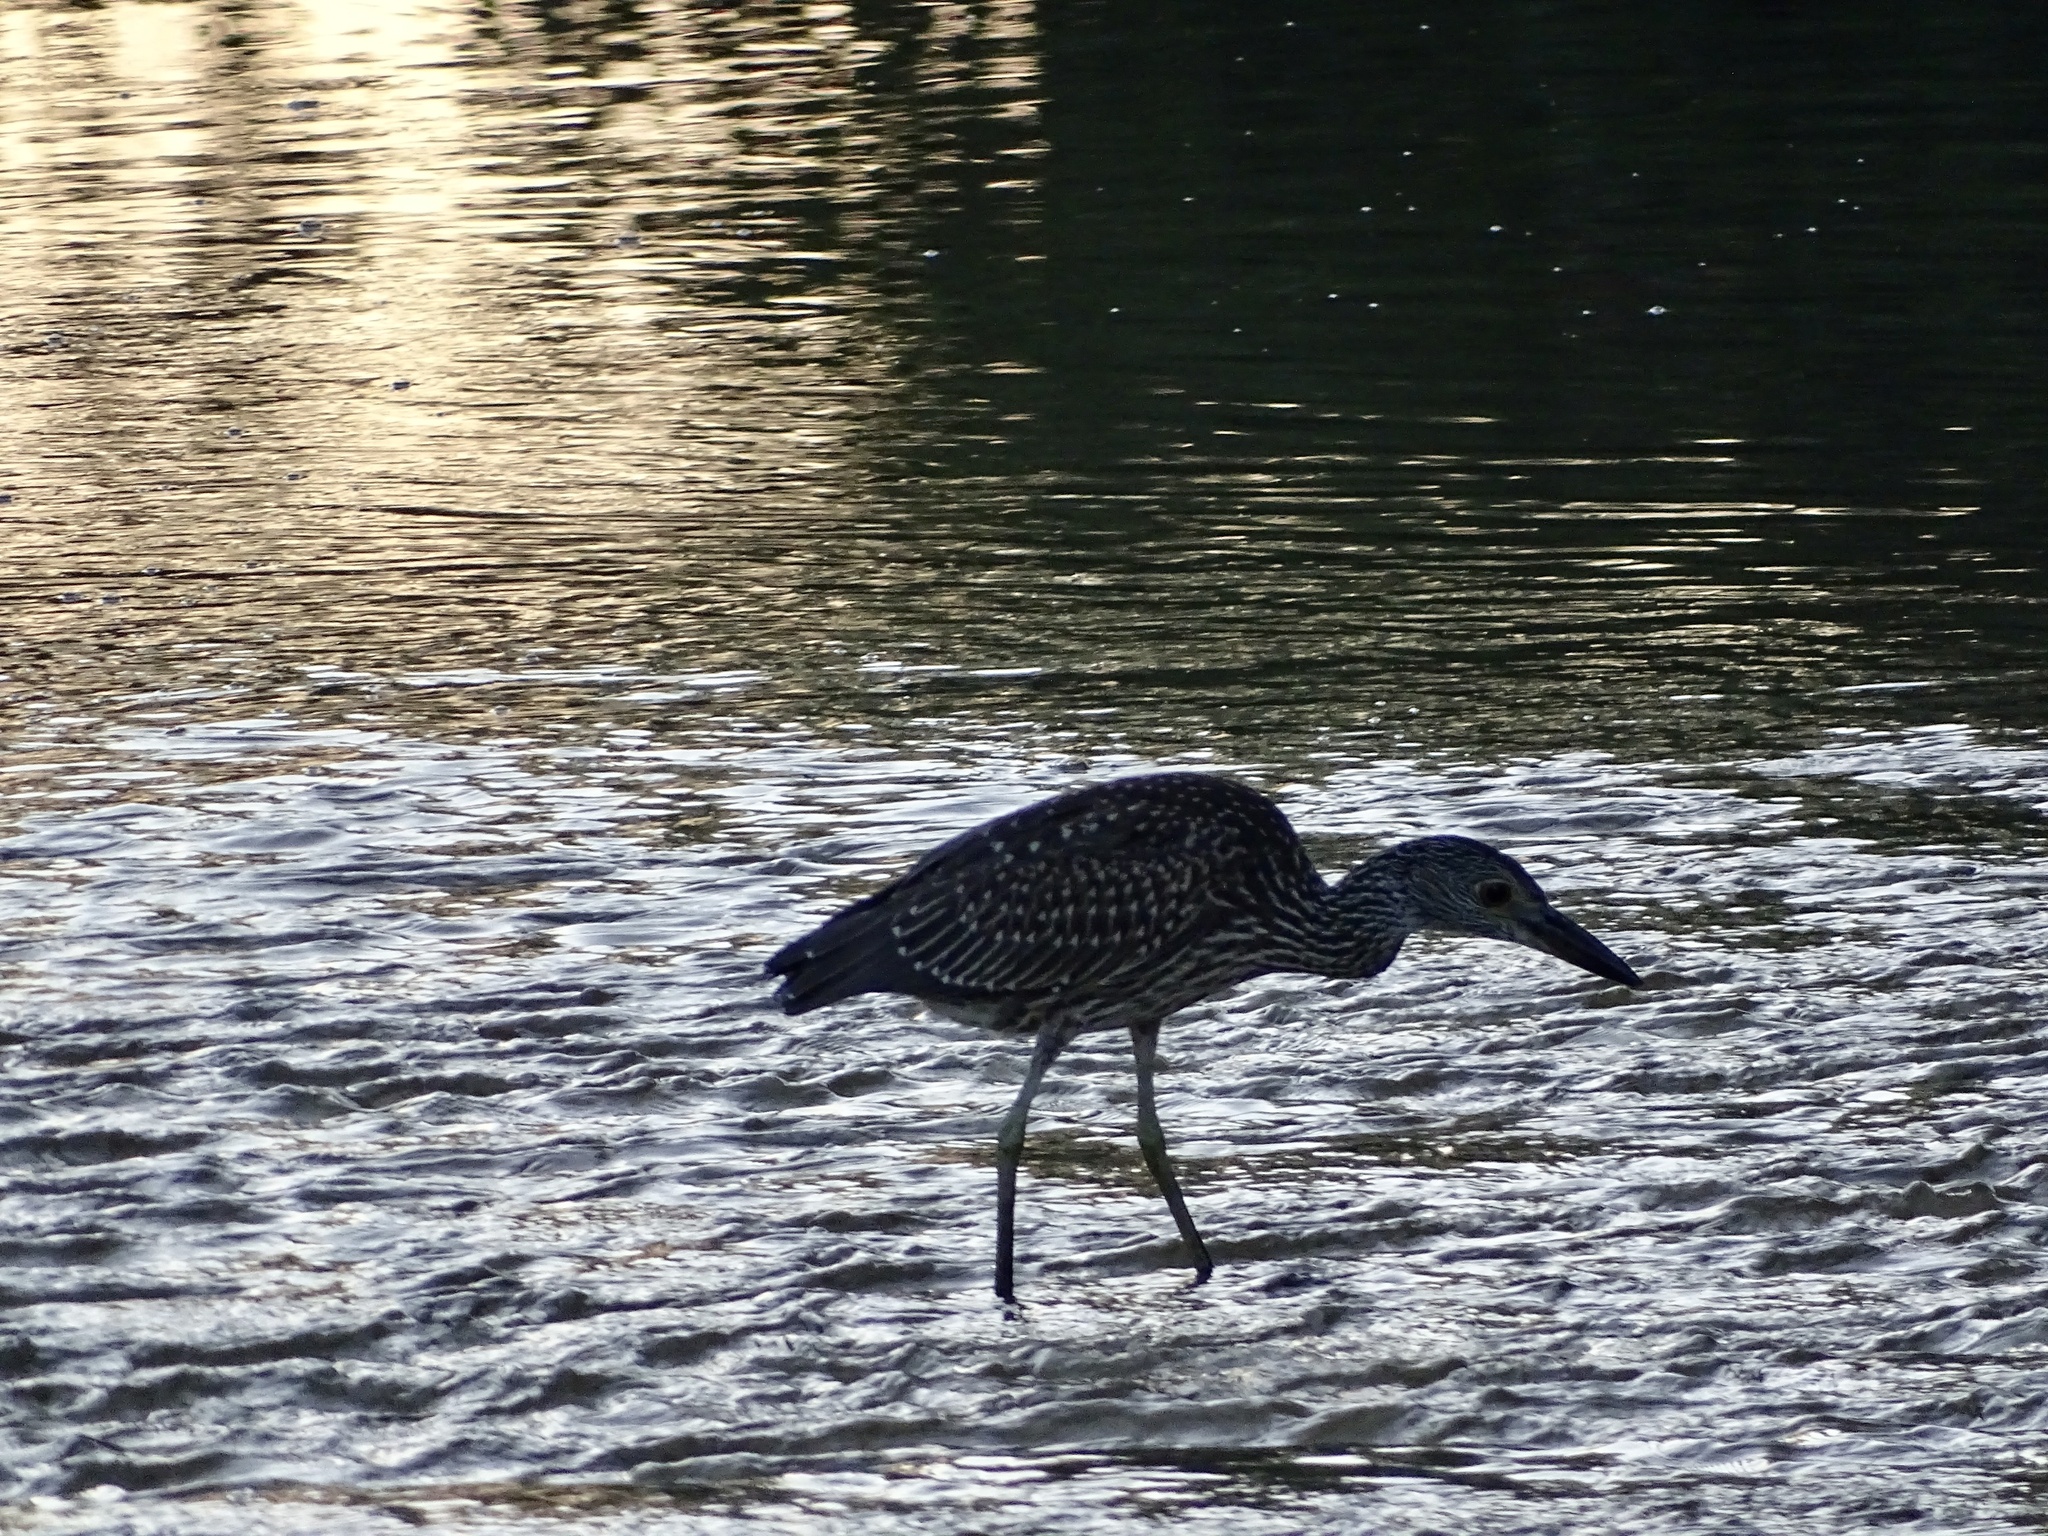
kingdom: Animalia
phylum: Chordata
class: Aves
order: Pelecaniformes
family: Ardeidae
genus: Nyctanassa
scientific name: Nyctanassa violacea
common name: Yellow-crowned night heron
